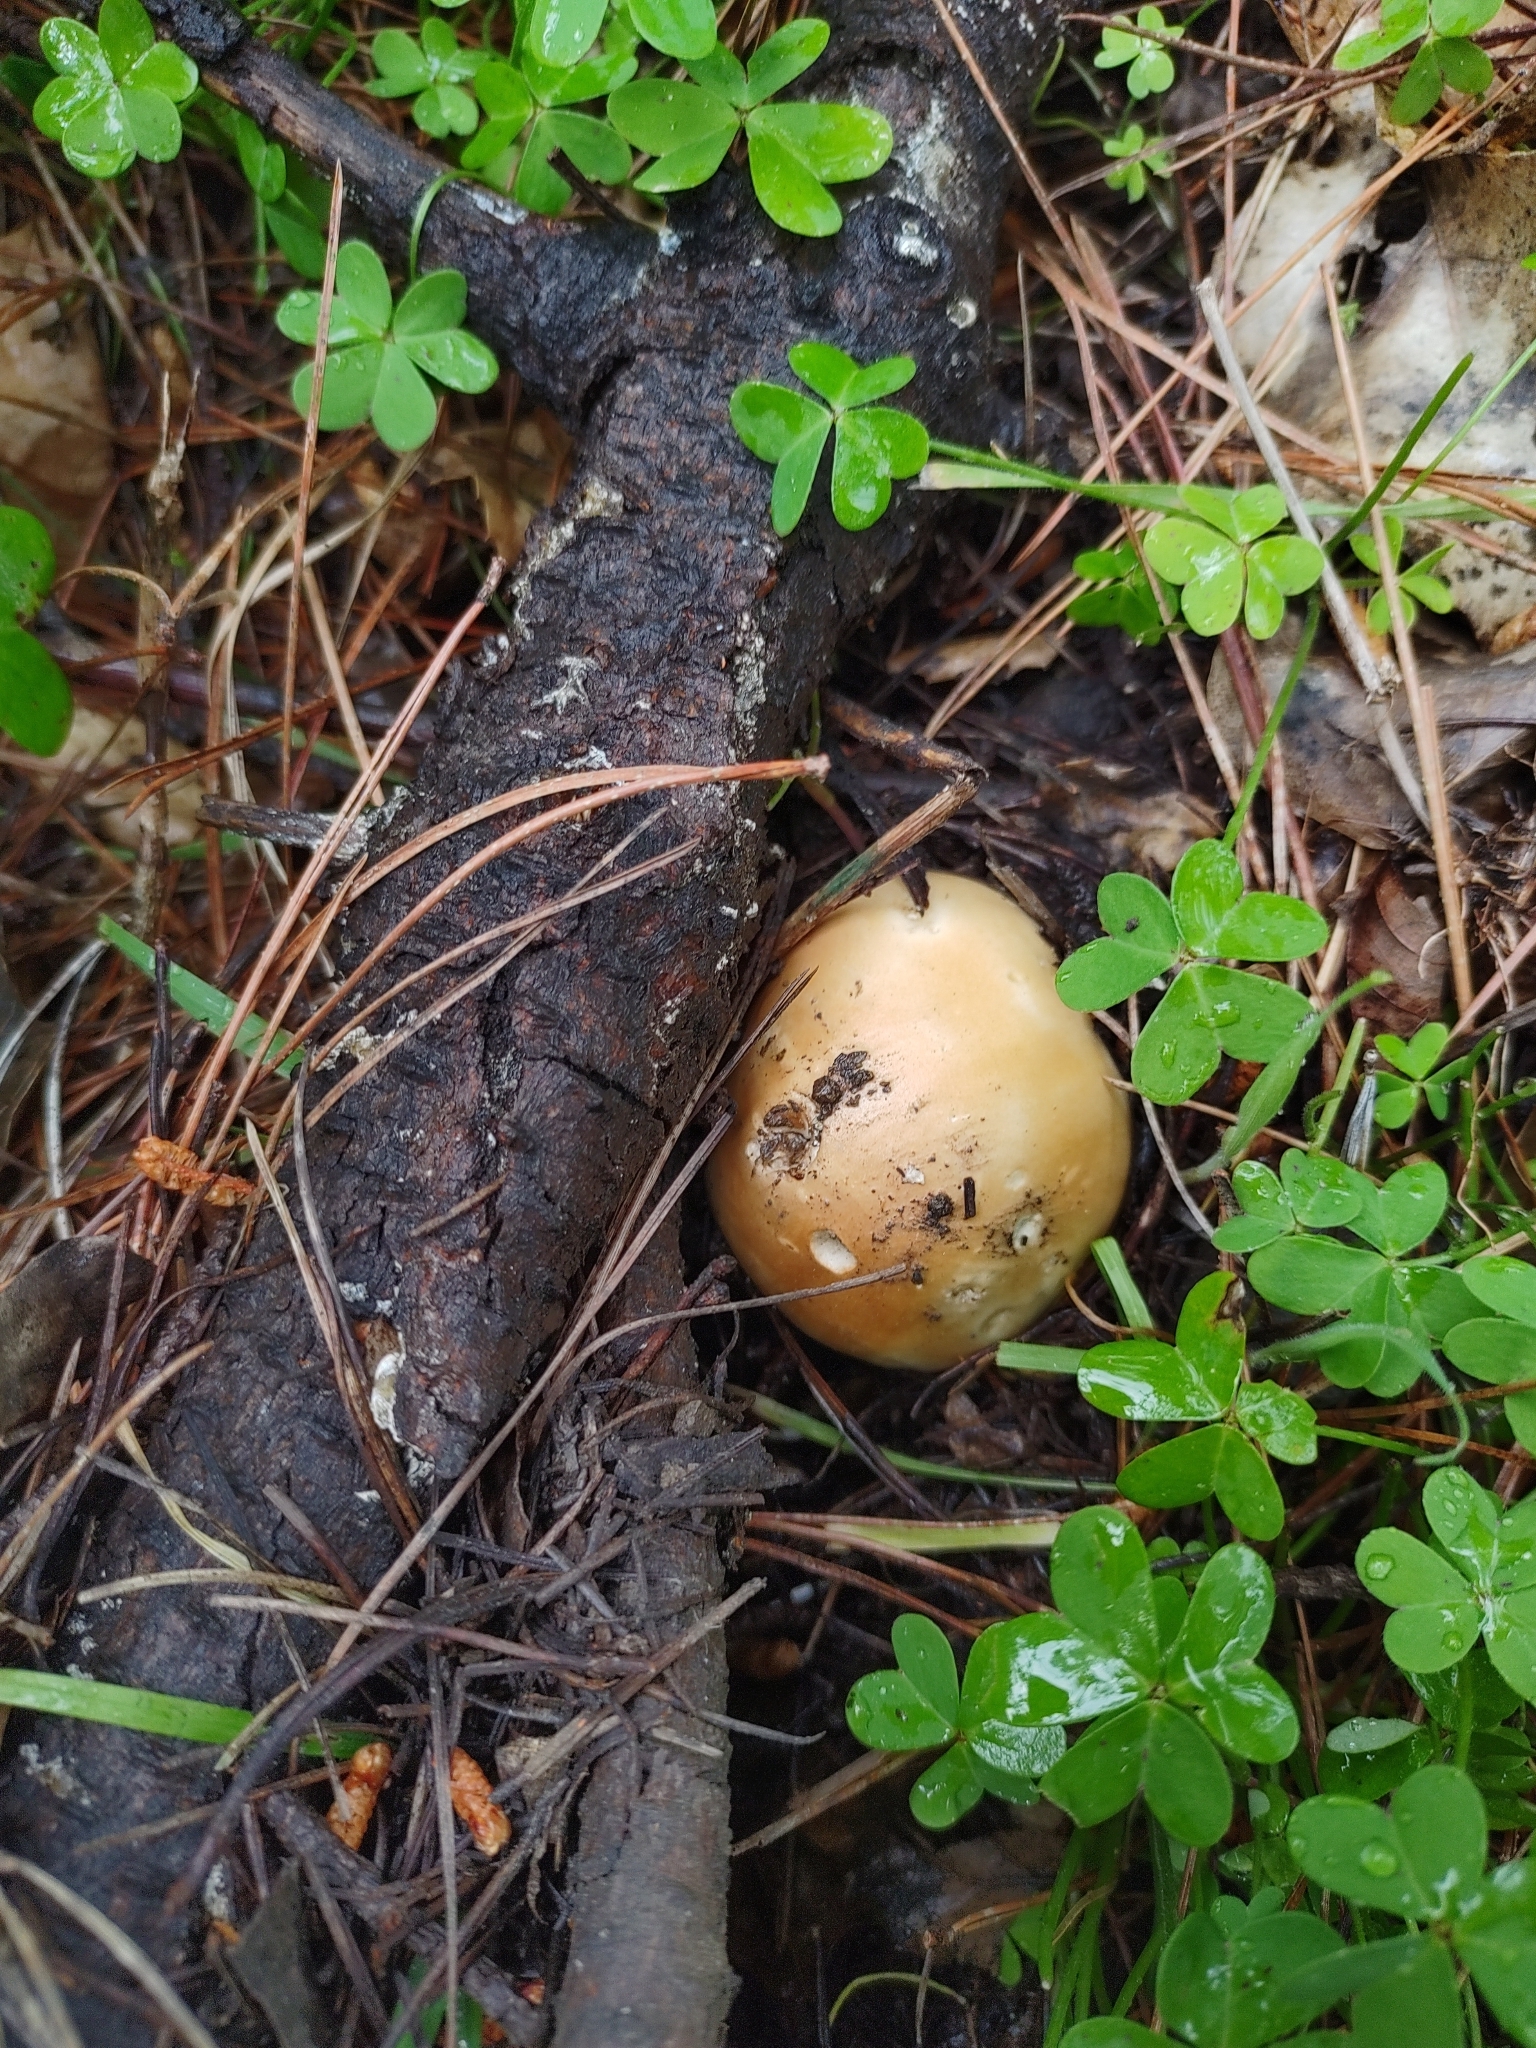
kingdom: Fungi
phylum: Basidiomycota
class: Agaricomycetes
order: Agaricales
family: Amanitaceae
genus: Amanita
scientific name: Amanita velosa
